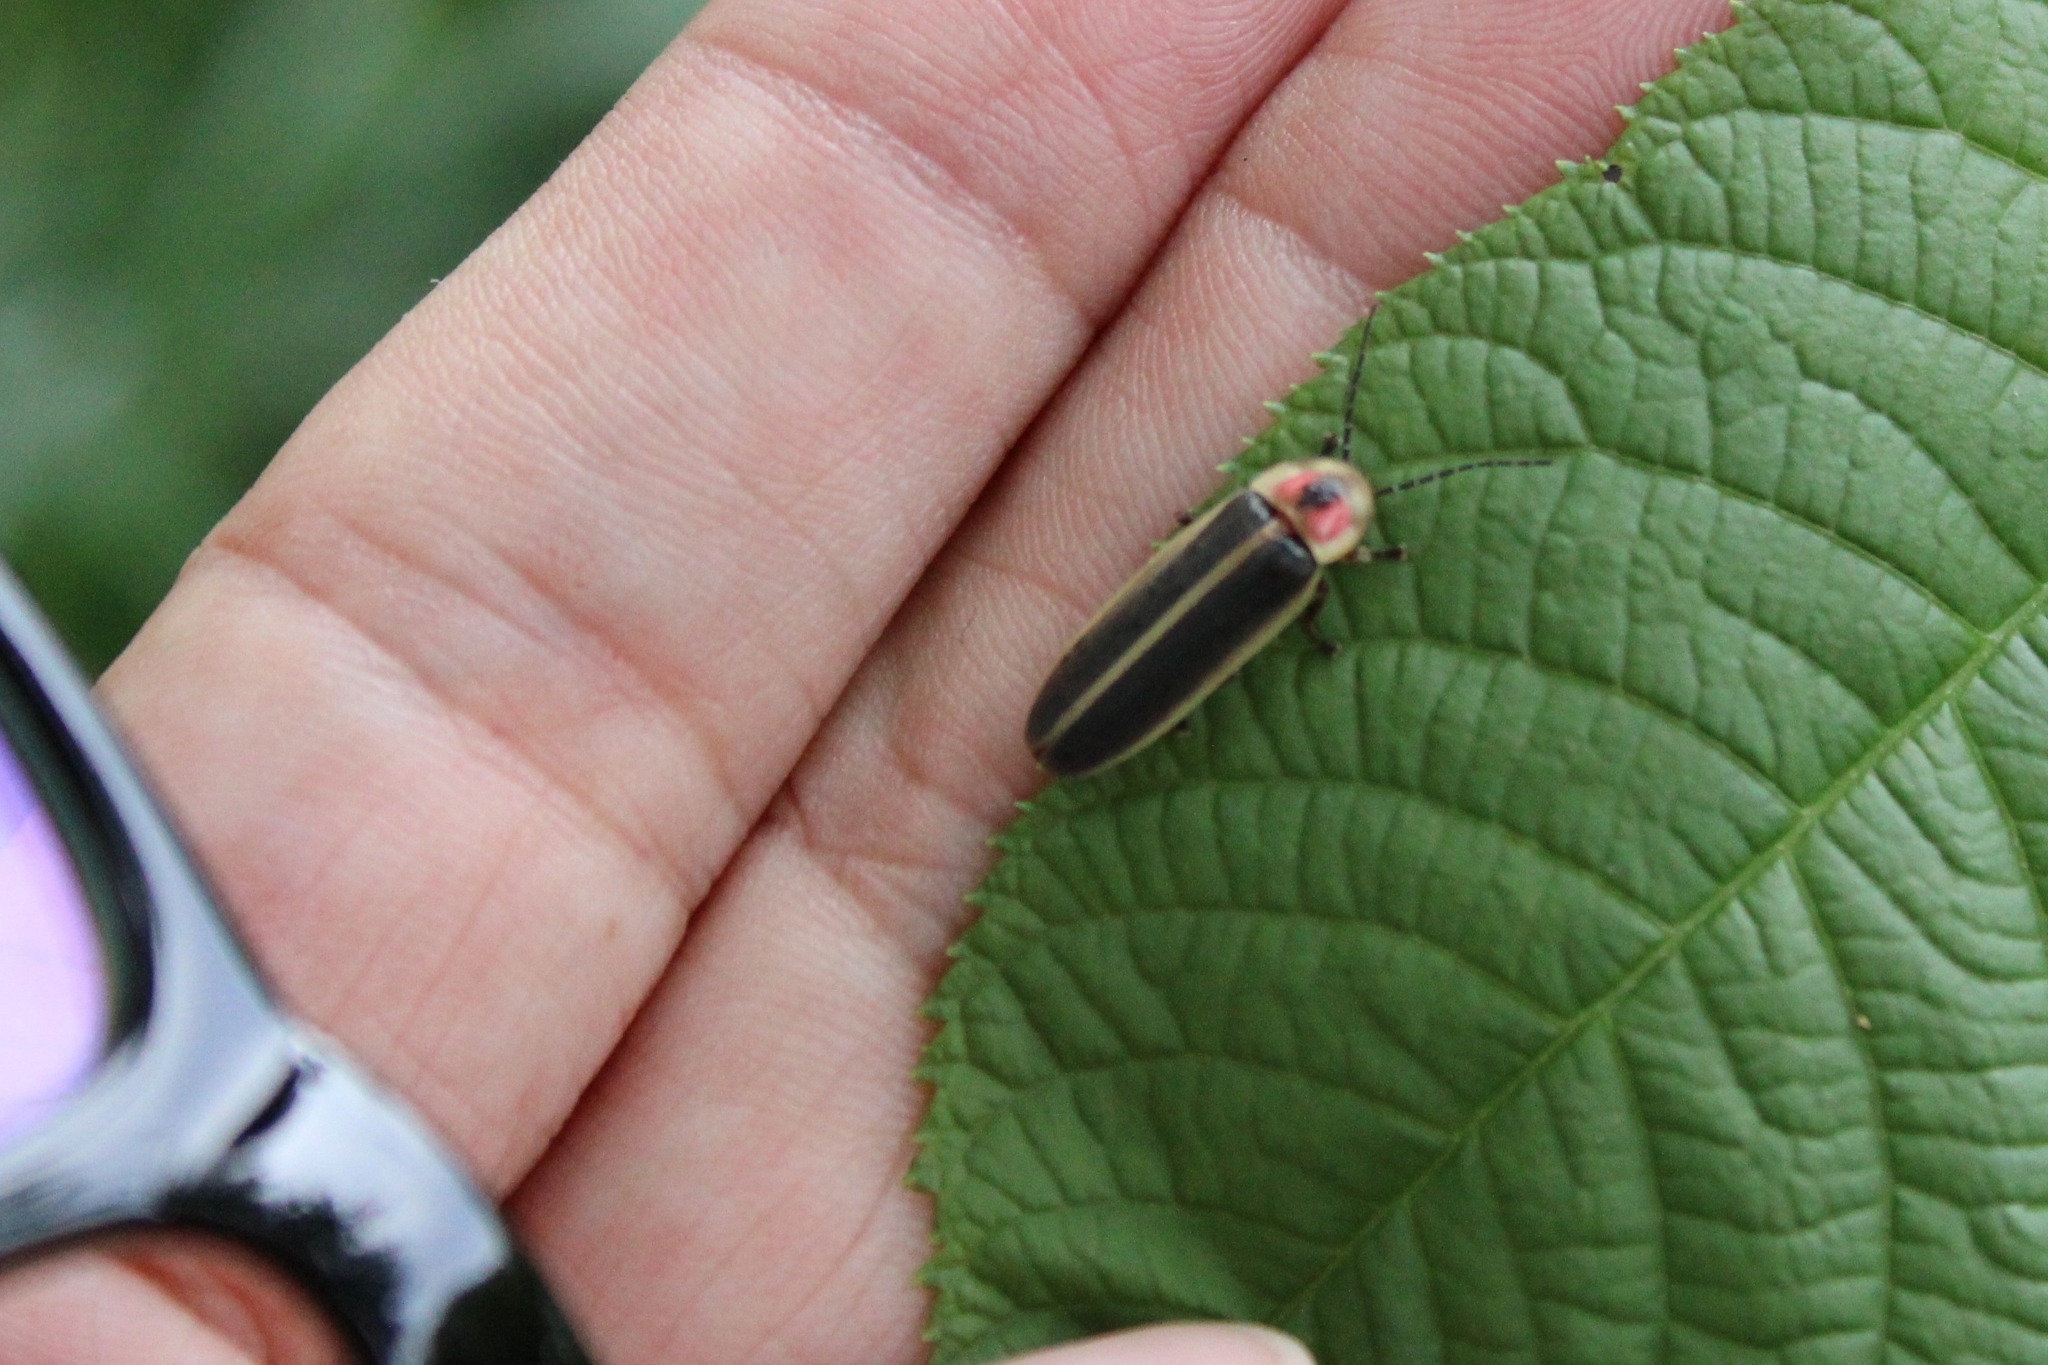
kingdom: Animalia
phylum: Arthropoda
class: Insecta
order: Coleoptera
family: Lampyridae
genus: Photinus
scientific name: Photinus pyralis
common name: Big dipper firefly
